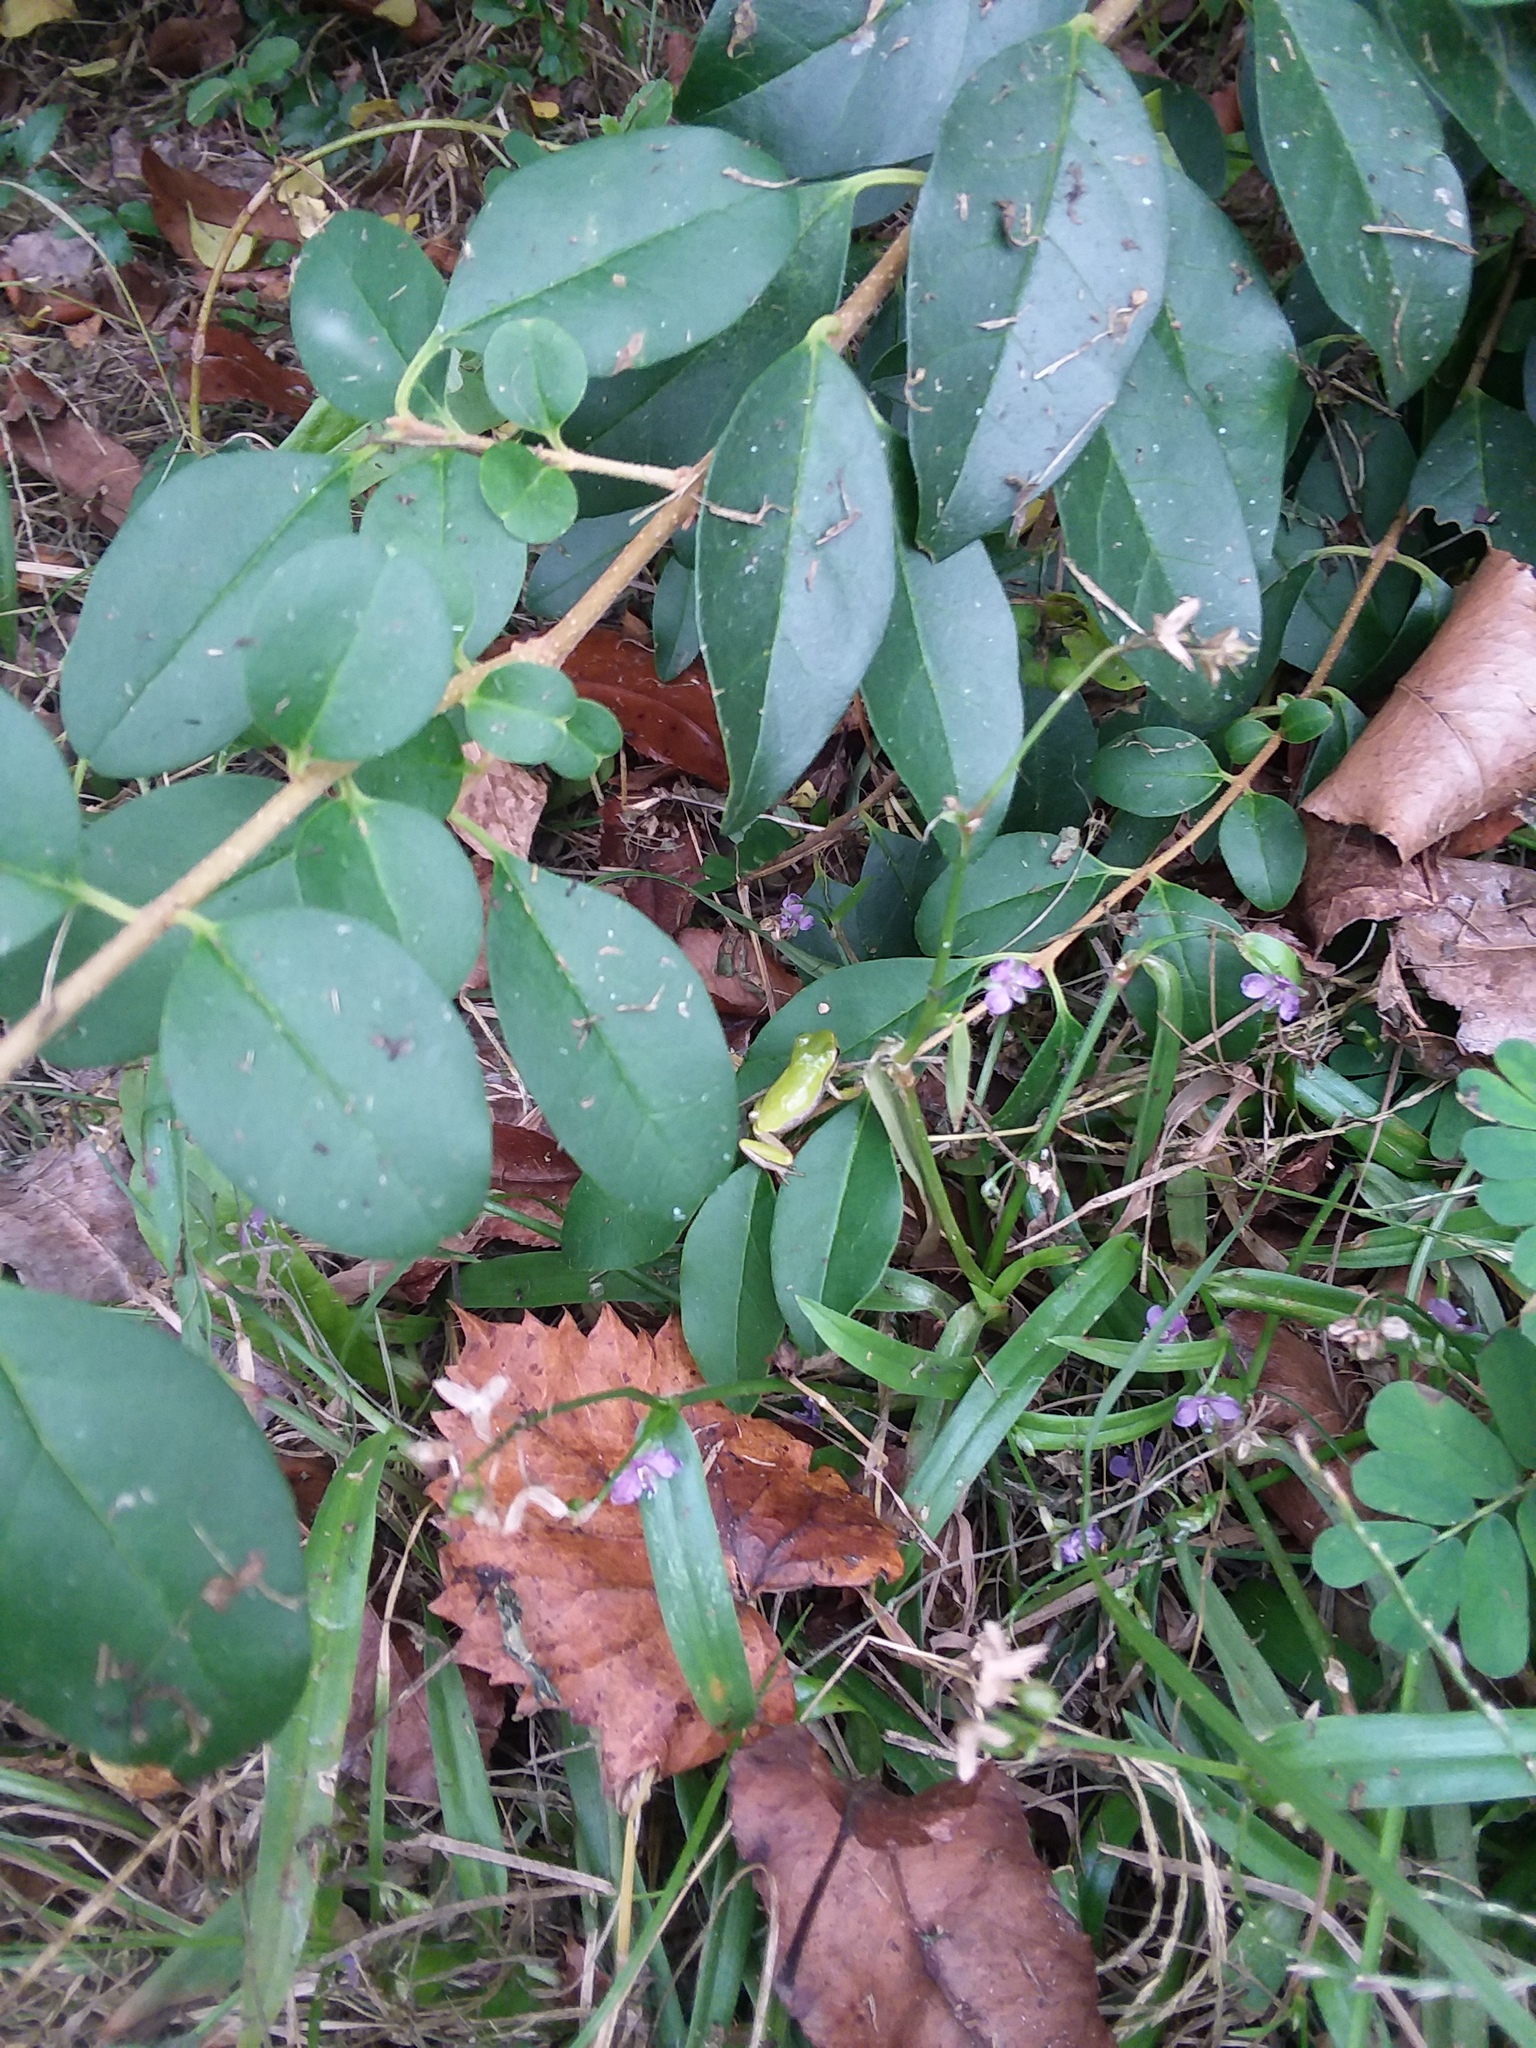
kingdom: Animalia
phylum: Chordata
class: Amphibia
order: Anura
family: Hylidae
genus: Dryophytes
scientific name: Dryophytes squirellus
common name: Squirrel treefrog
